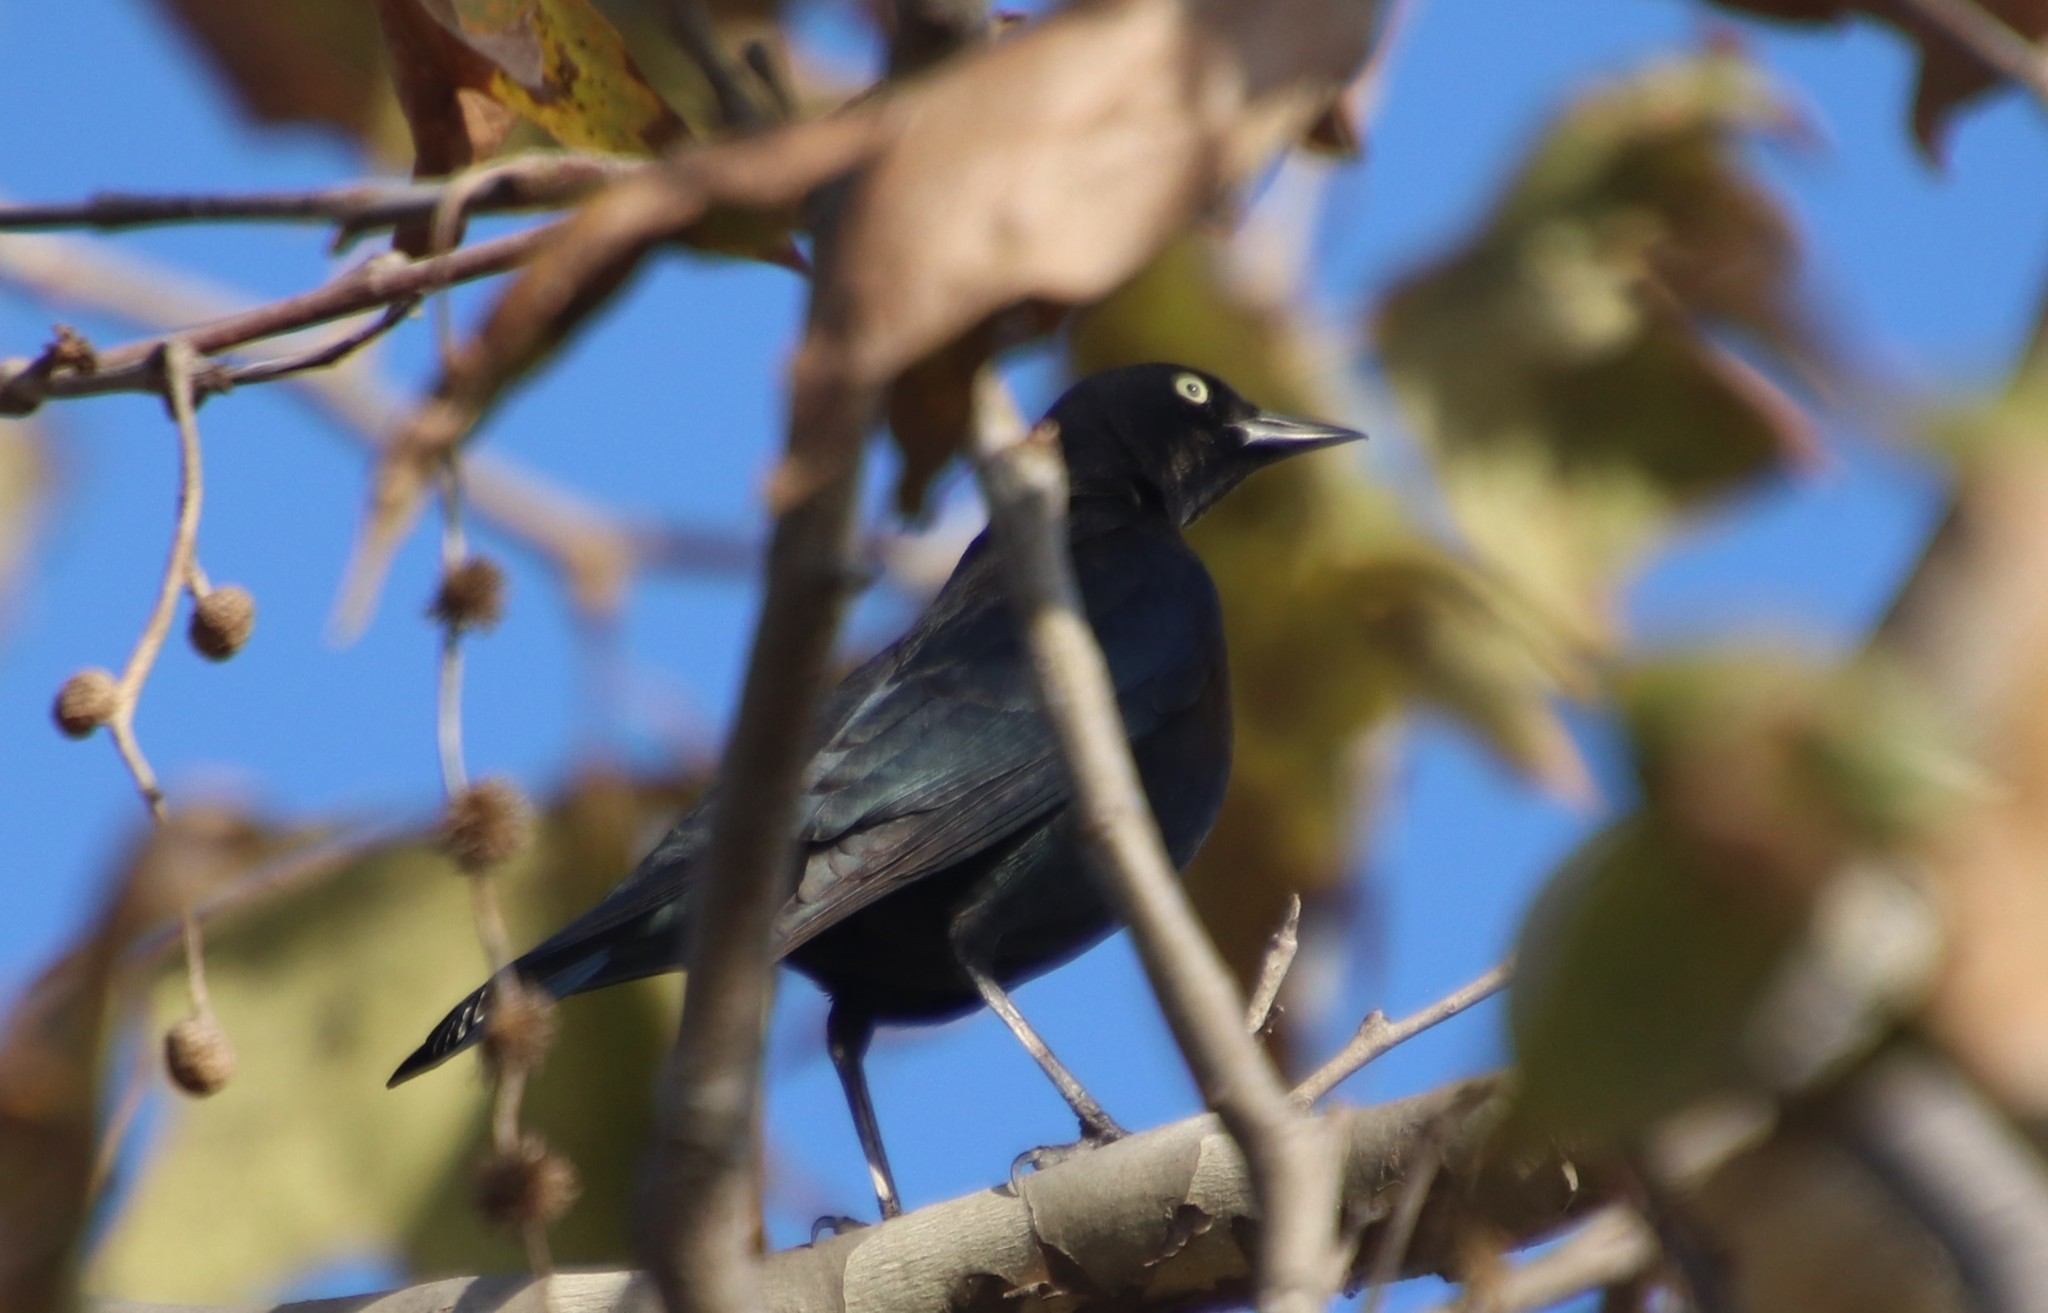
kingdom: Animalia
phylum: Chordata
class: Aves
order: Passeriformes
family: Icteridae
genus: Euphagus
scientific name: Euphagus cyanocephalus
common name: Brewer's blackbird
